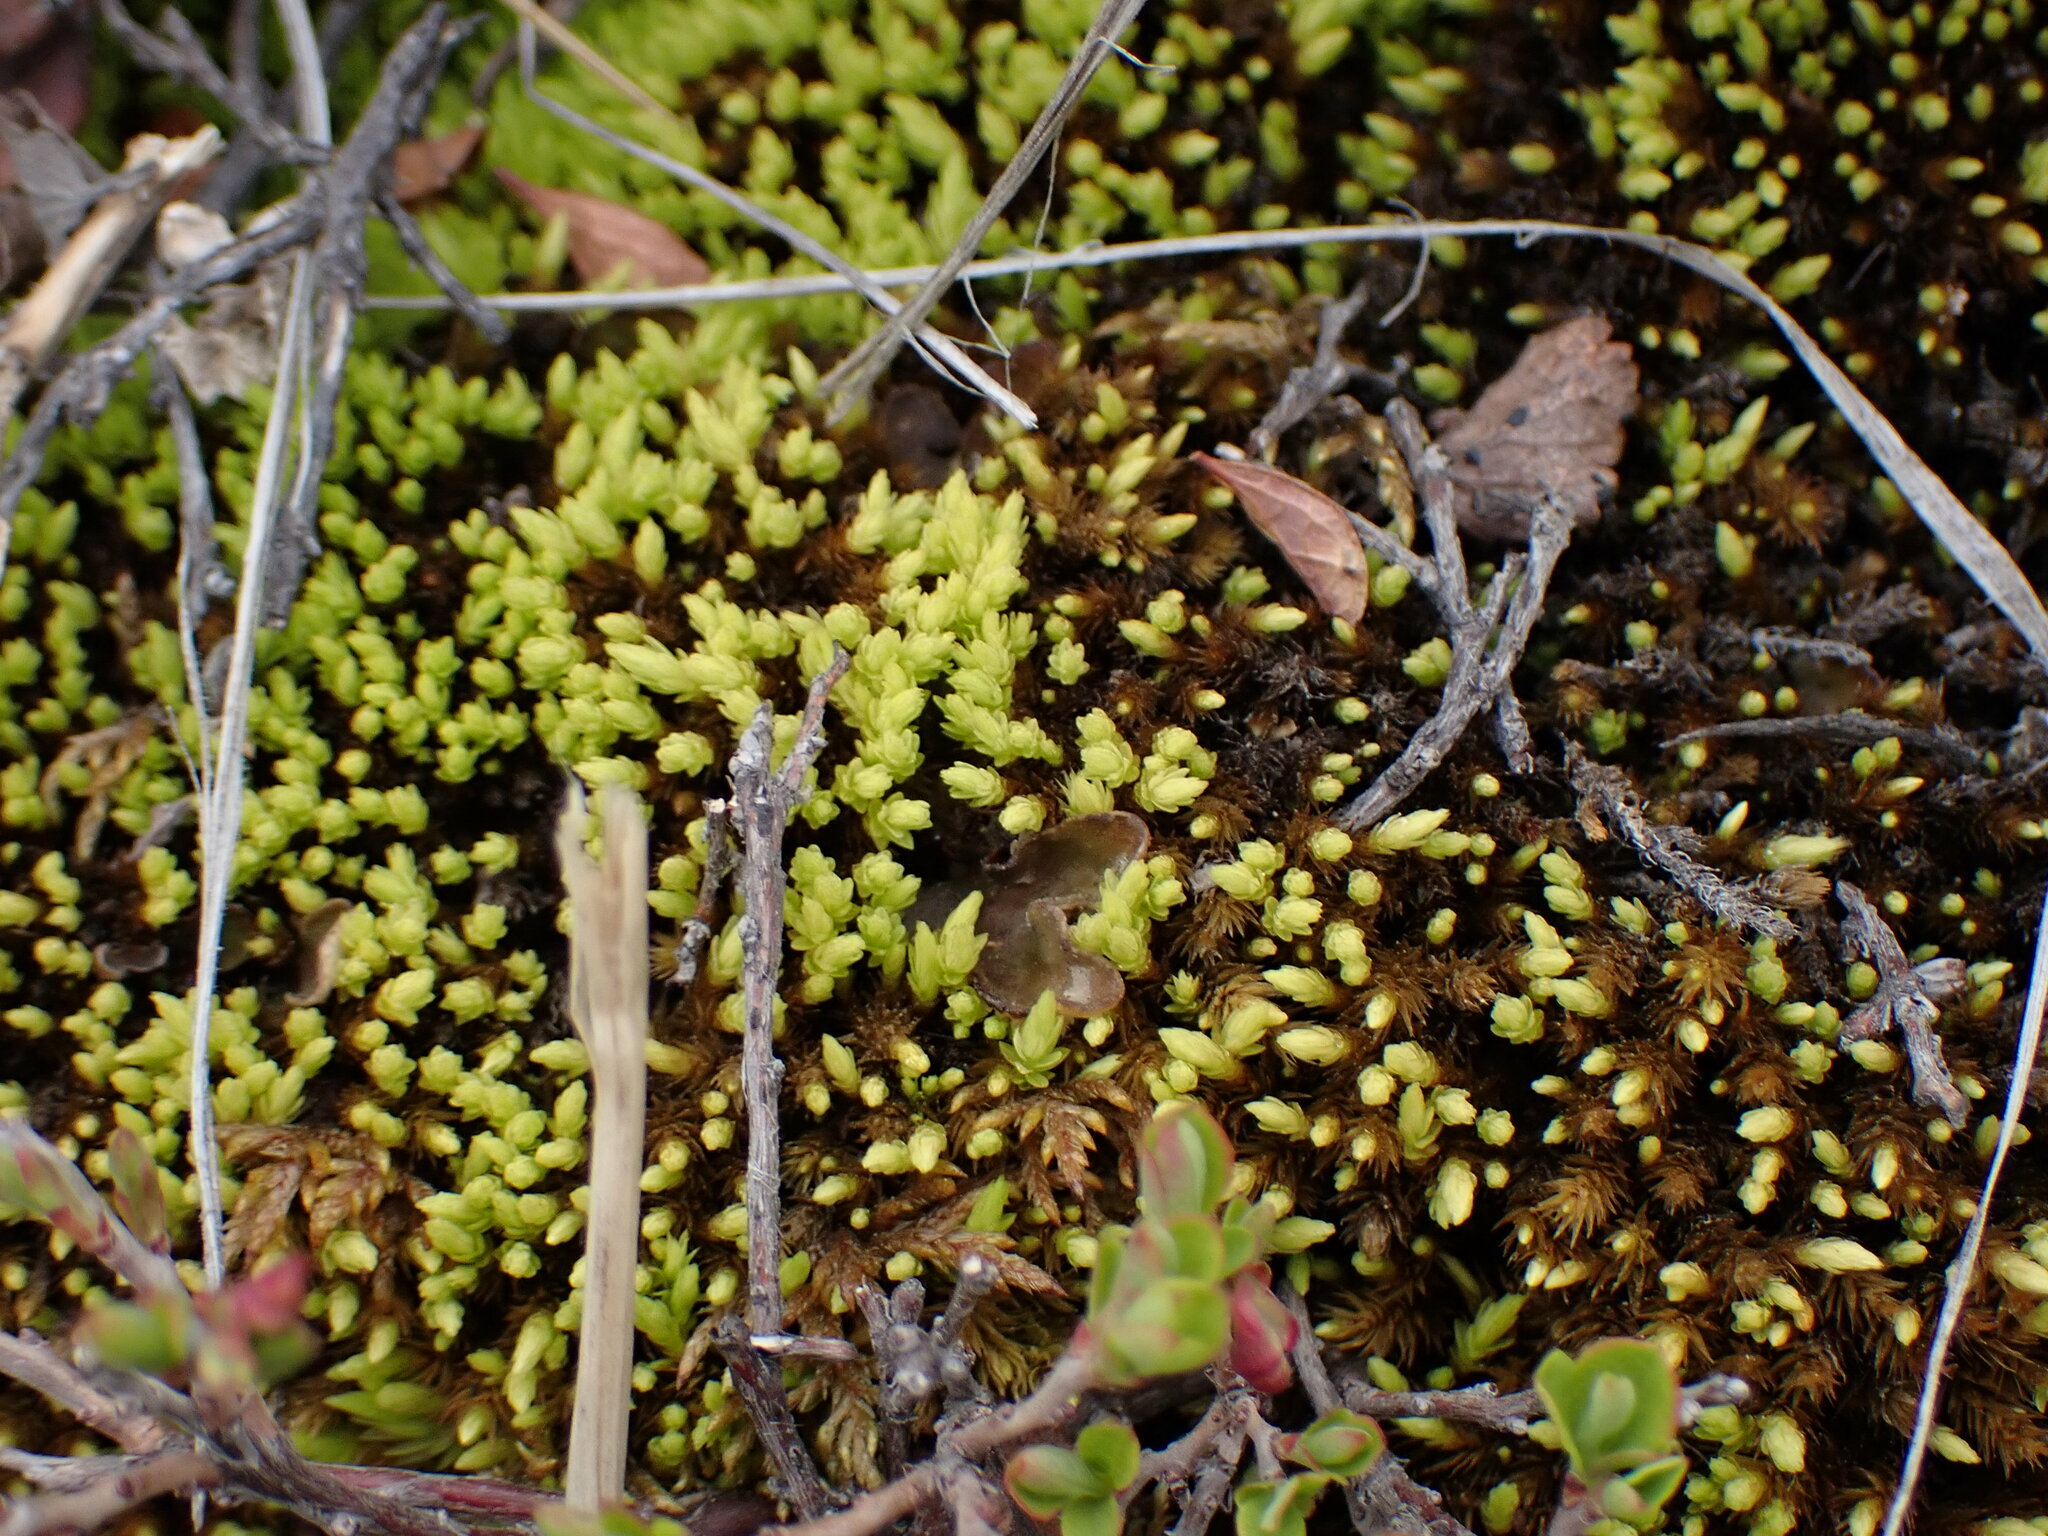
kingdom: Plantae
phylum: Bryophyta
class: Bryopsida
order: Aulacomniales
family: Aulacomniaceae
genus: Aulacomnium
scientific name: Aulacomnium palustre
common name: Bog groove-moss
